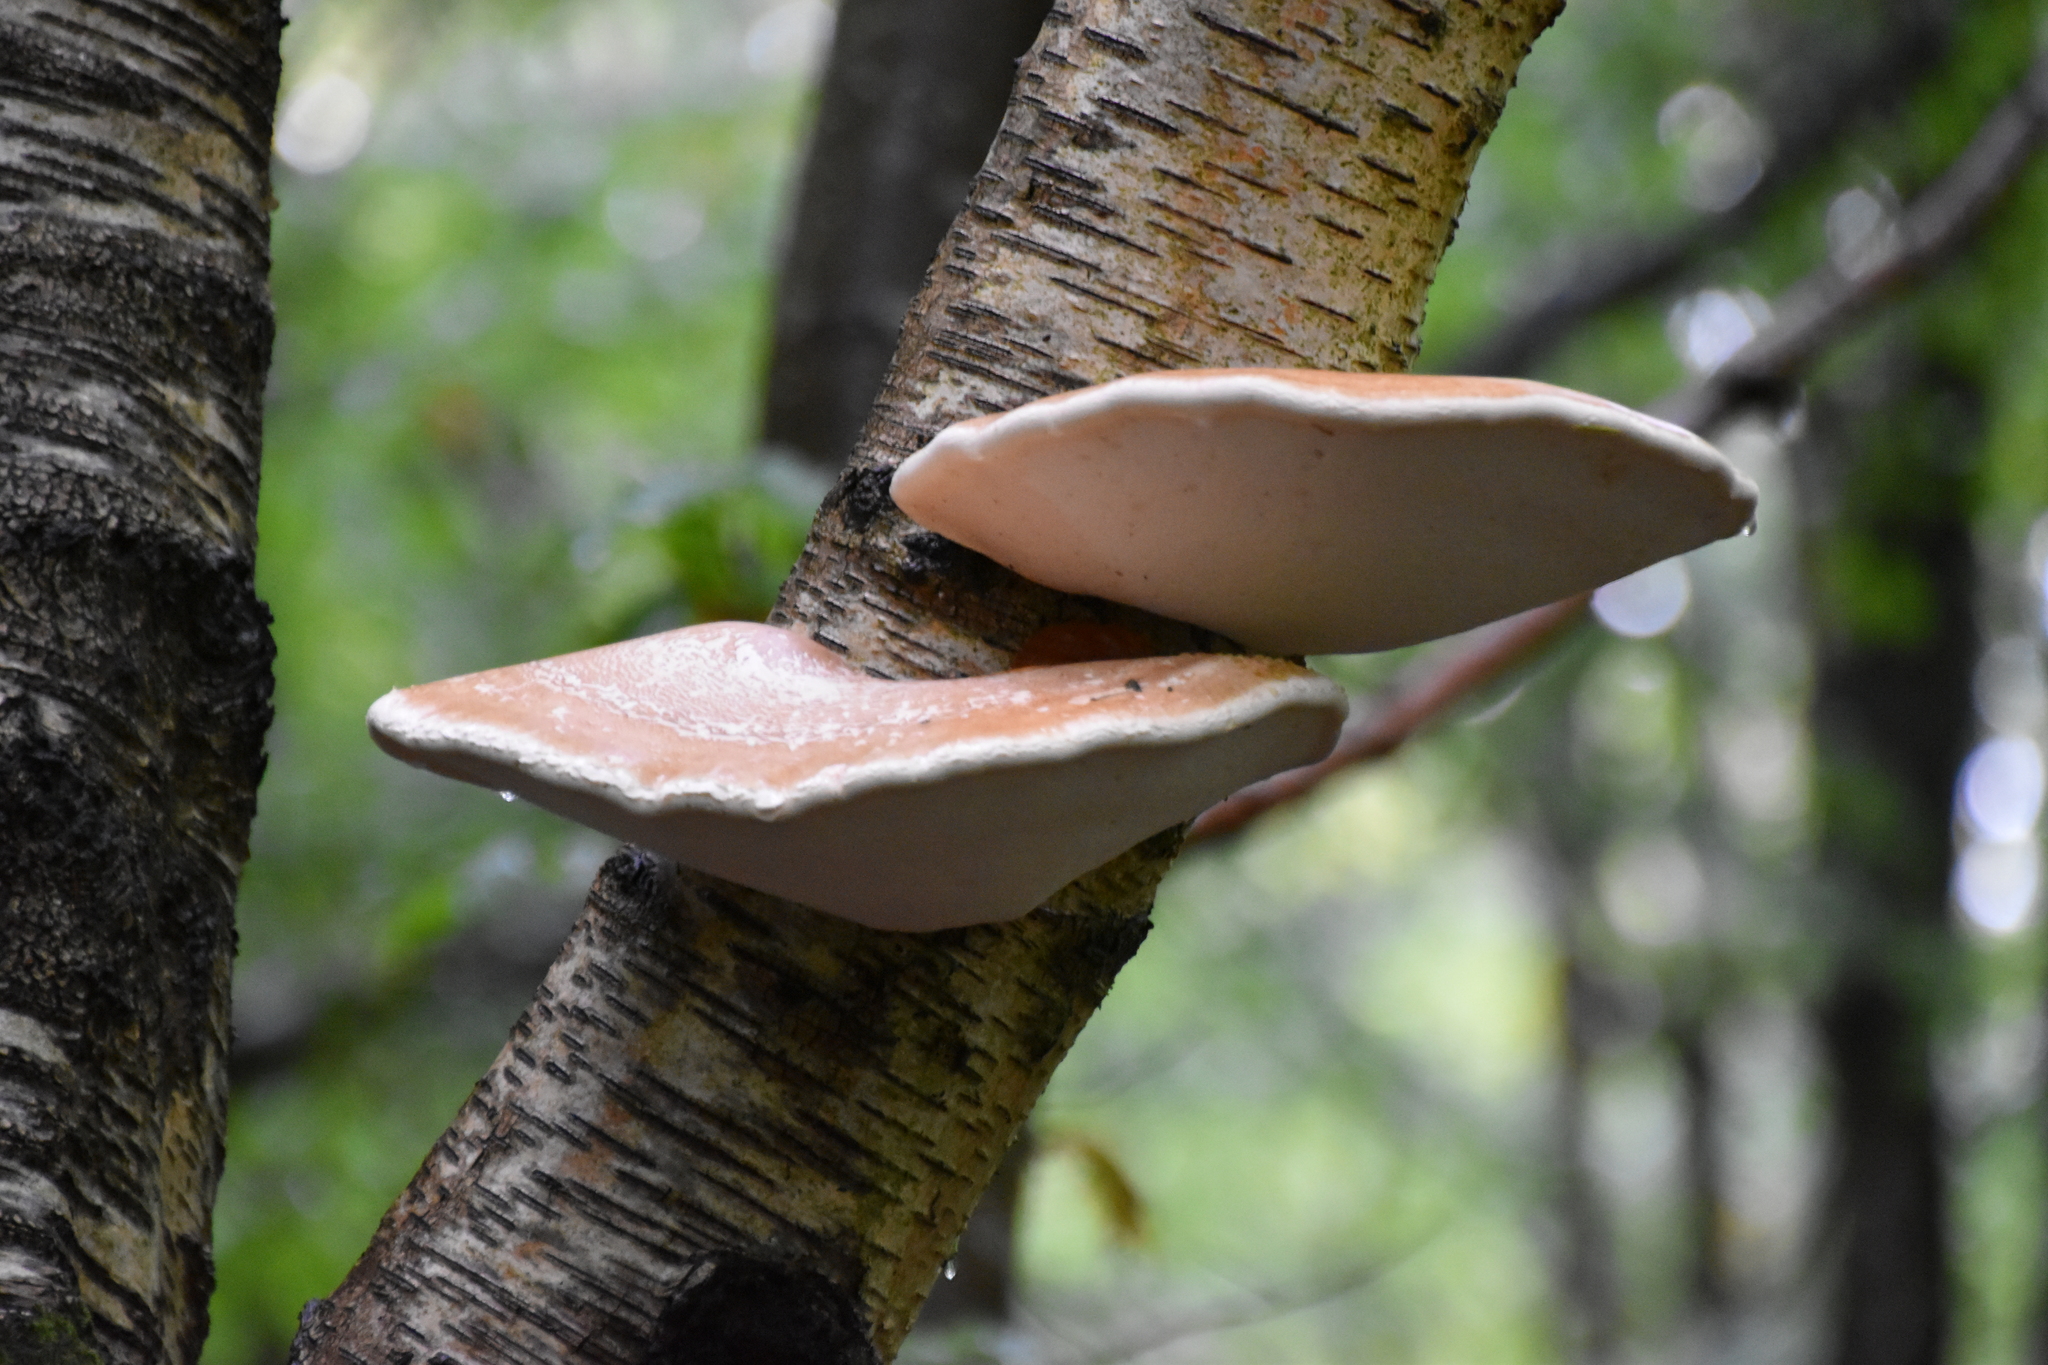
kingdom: Fungi
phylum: Basidiomycota
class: Agaricomycetes
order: Polyporales
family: Fomitopsidaceae
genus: Fomitopsis
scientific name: Fomitopsis betulina
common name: Birch polypore
